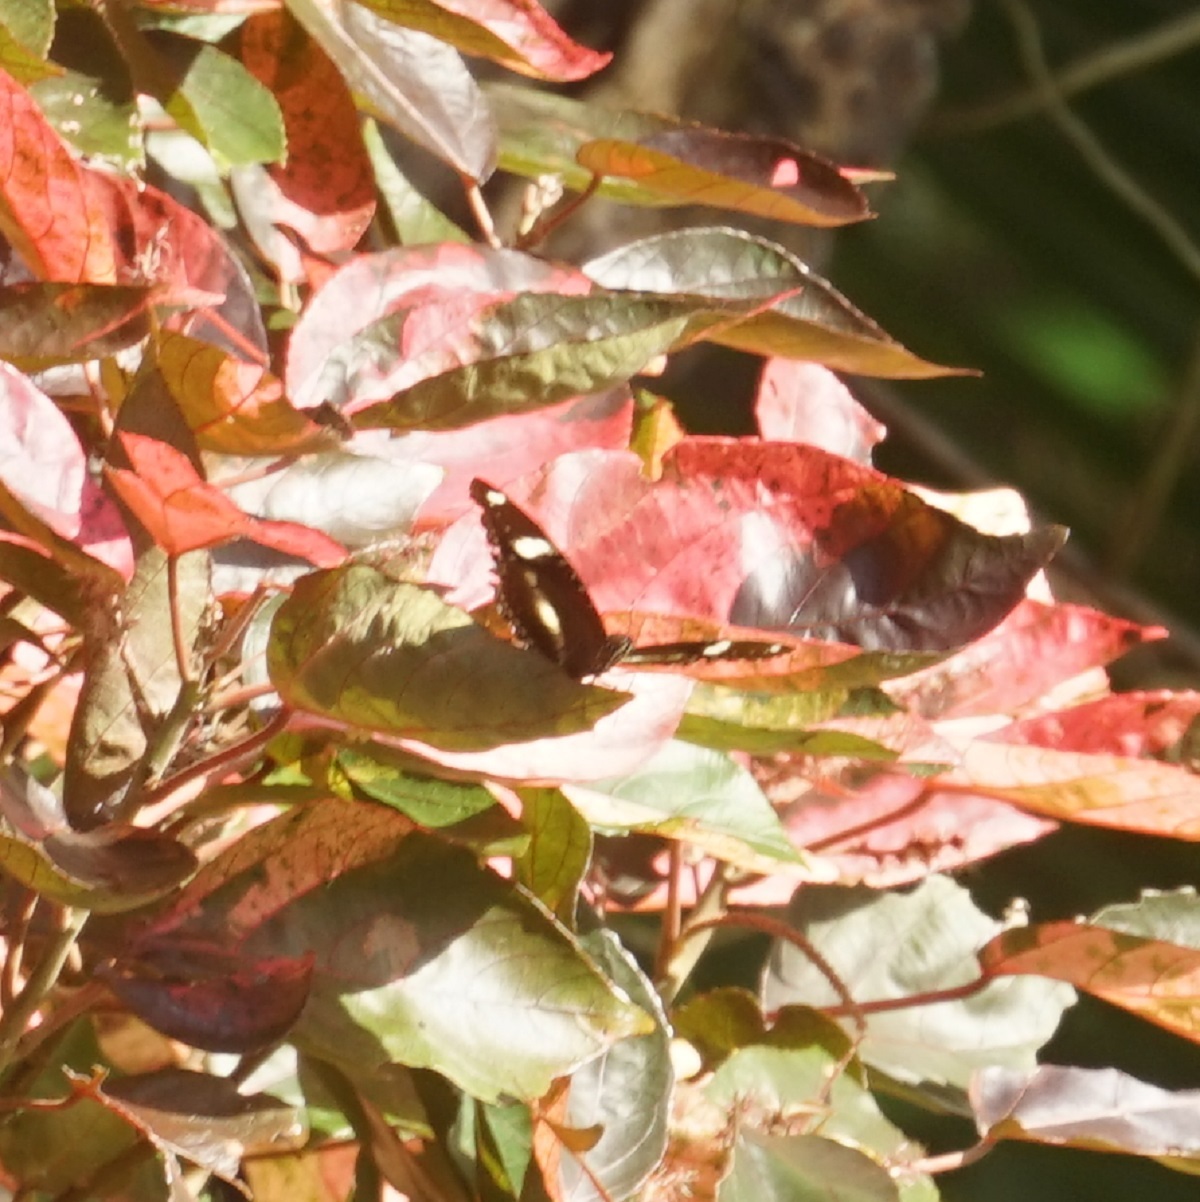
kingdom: Animalia
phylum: Arthropoda
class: Insecta
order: Lepidoptera
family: Nymphalidae
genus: Hypolimnas
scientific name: Hypolimnas bolina
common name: Great eggfly
